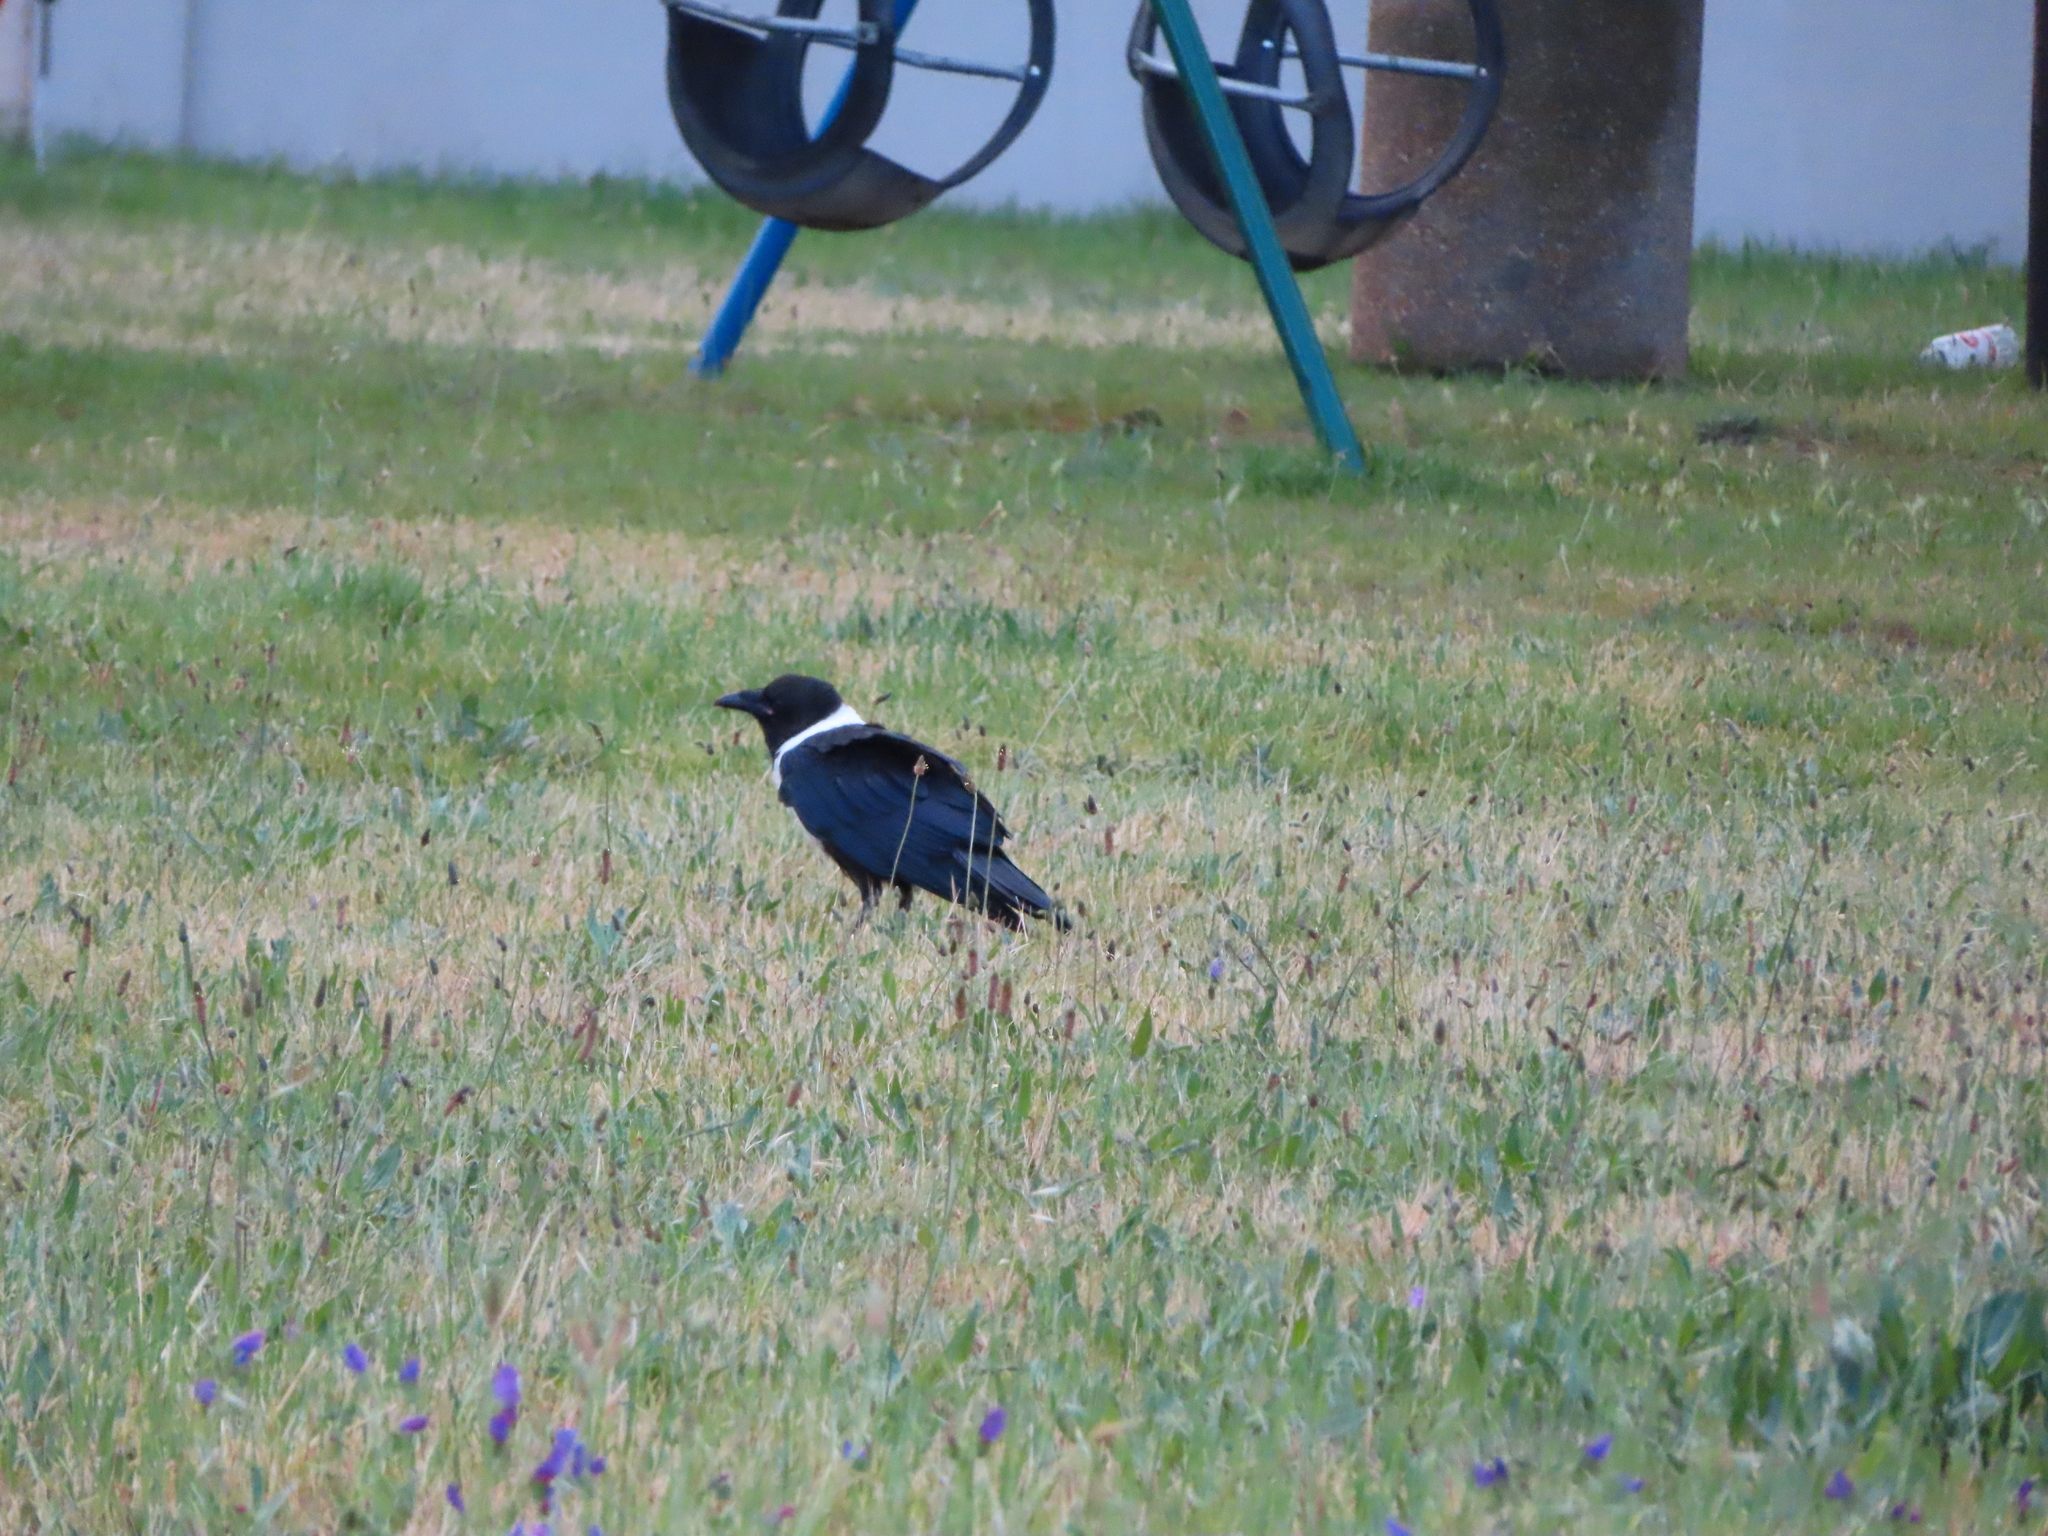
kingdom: Animalia
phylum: Chordata
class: Aves
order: Passeriformes
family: Corvidae
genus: Corvus
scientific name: Corvus albus
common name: Pied crow
